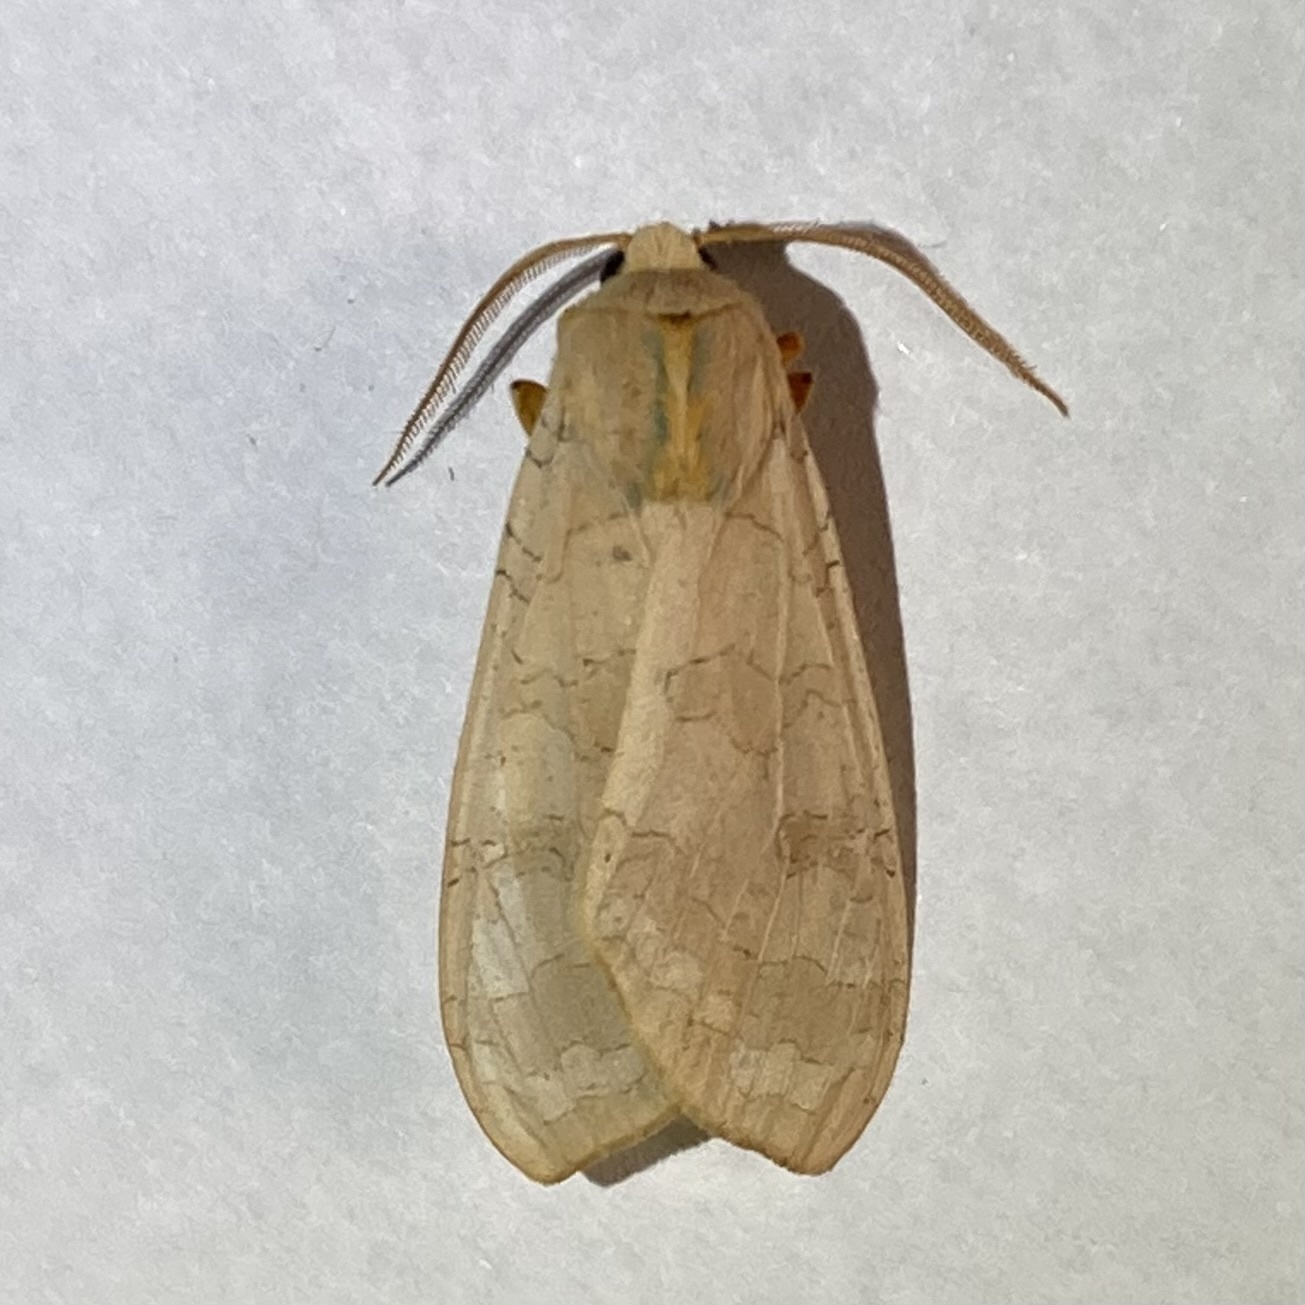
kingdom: Animalia
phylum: Arthropoda
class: Insecta
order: Lepidoptera
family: Erebidae
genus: Halysidota
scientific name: Halysidota tessellaris
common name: Banded tussock moth
